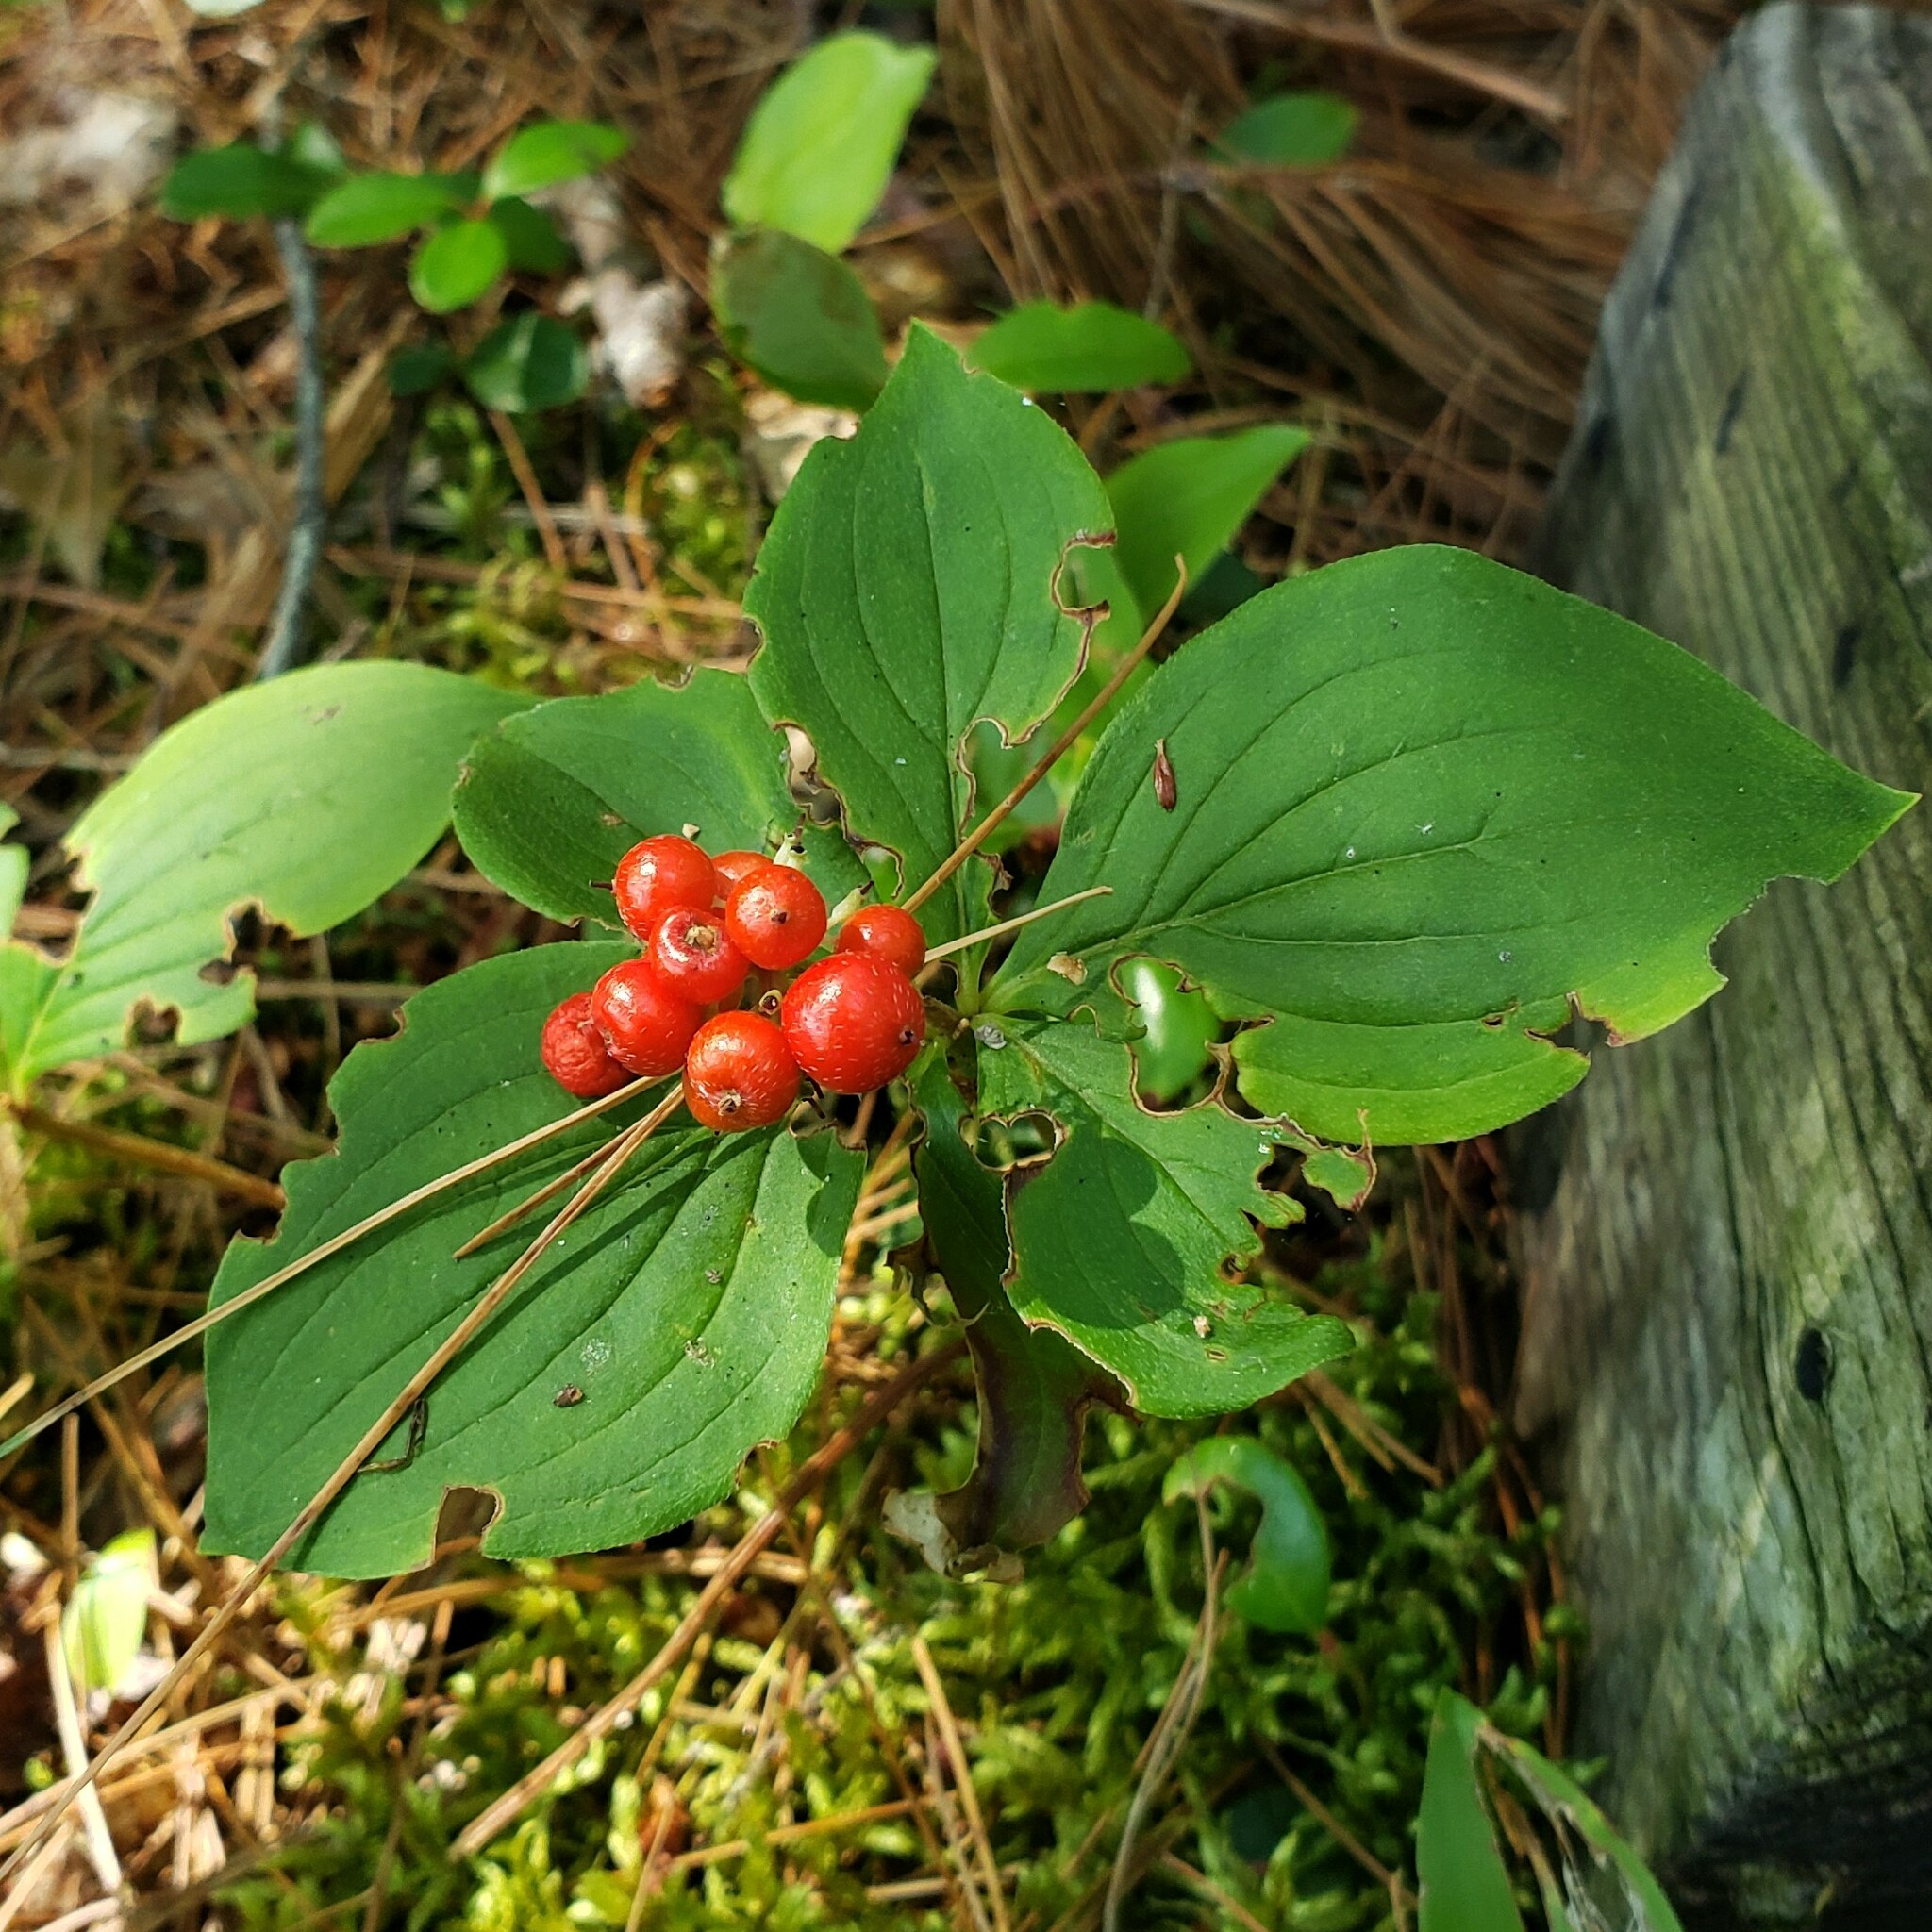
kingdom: Plantae
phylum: Tracheophyta
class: Magnoliopsida
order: Cornales
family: Cornaceae
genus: Cornus
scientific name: Cornus canadensis
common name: Creeping dogwood
